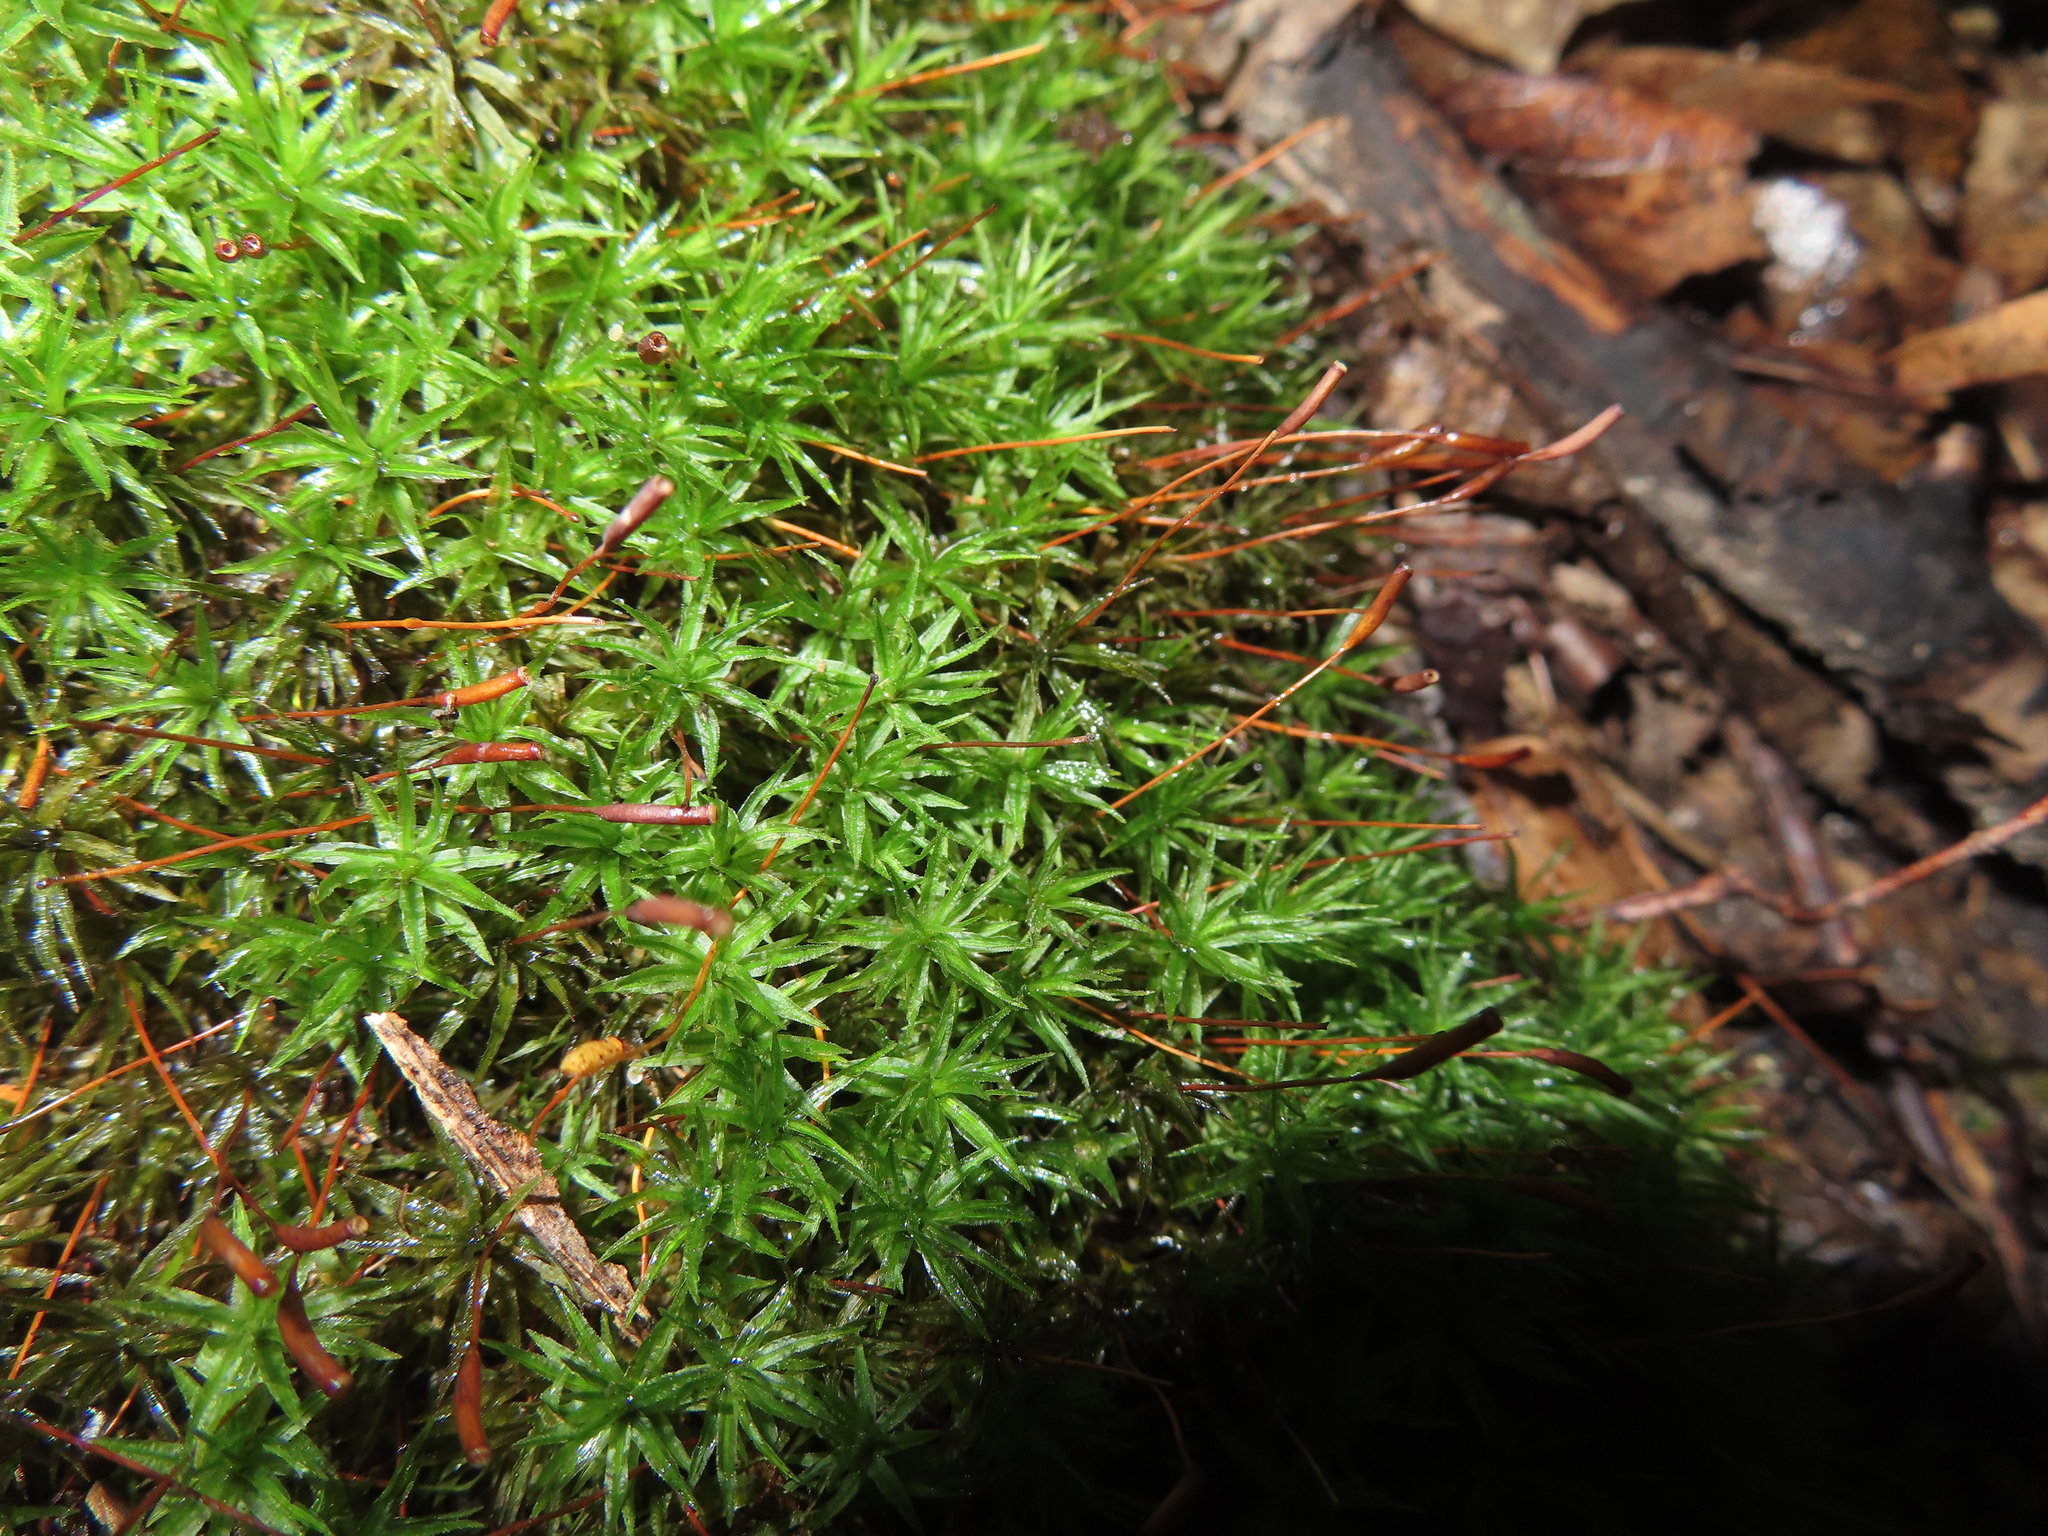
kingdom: Plantae
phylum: Bryophyta
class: Polytrichopsida
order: Polytrichales
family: Polytrichaceae
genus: Atrichum
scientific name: Atrichum
